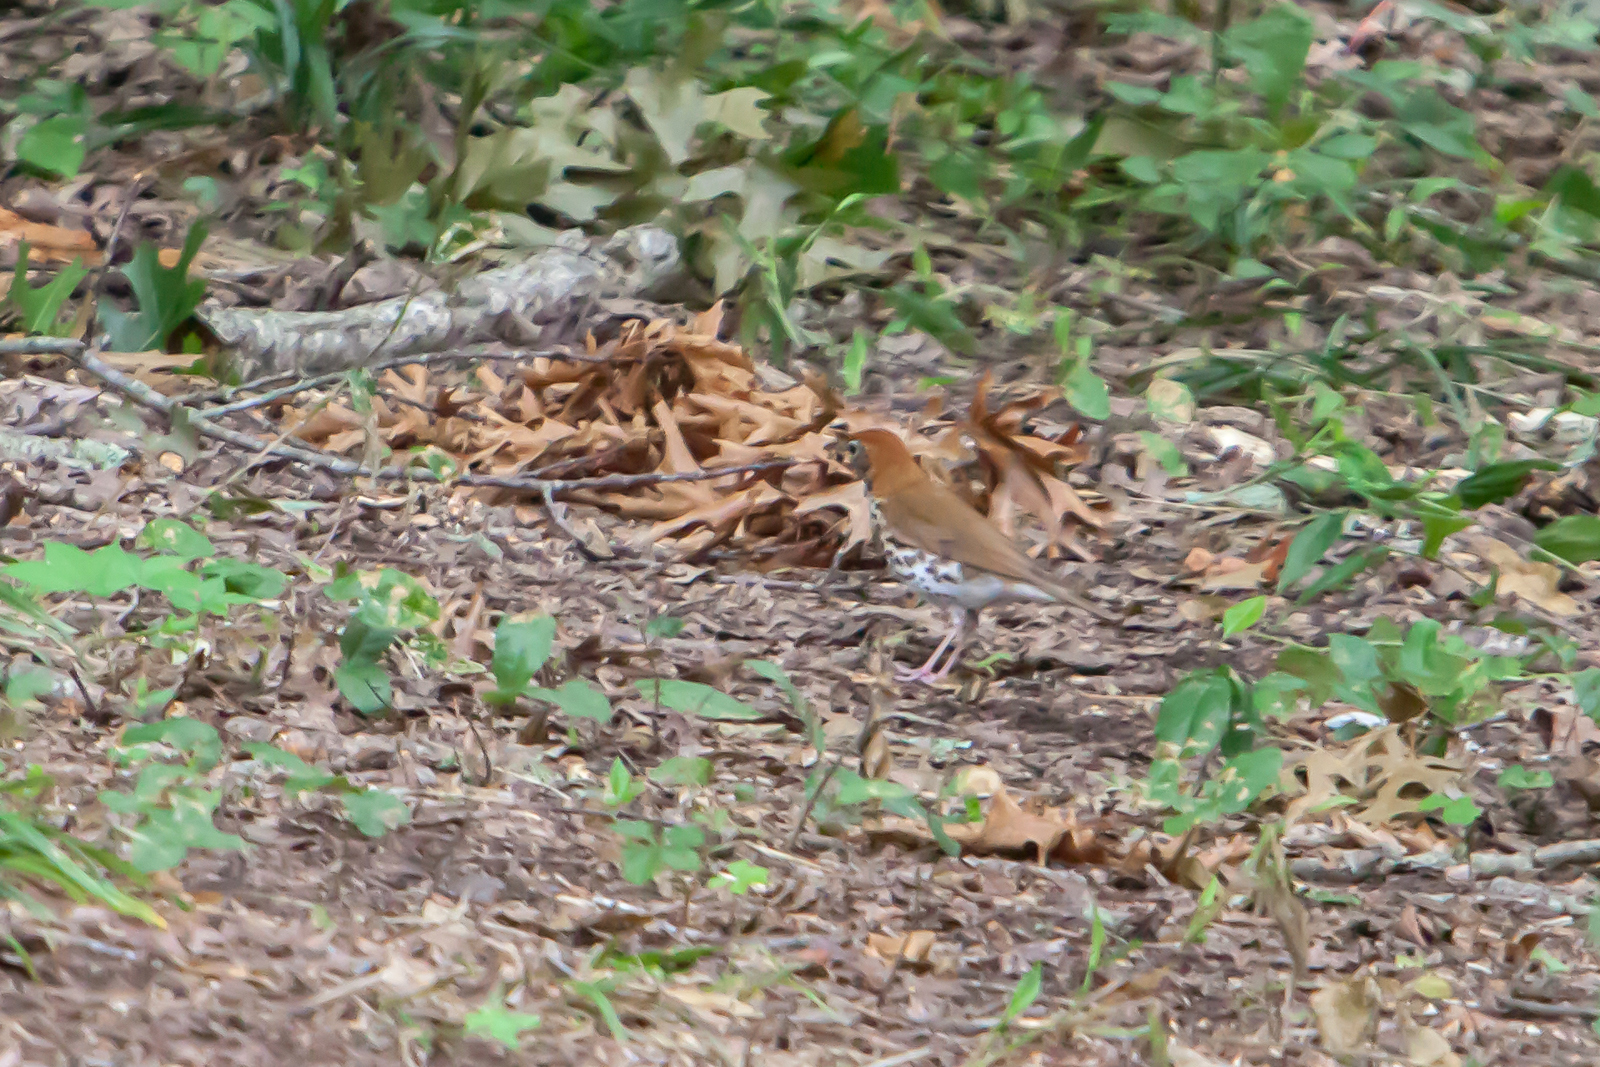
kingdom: Animalia
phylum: Chordata
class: Aves
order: Passeriformes
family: Turdidae
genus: Hylocichla
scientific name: Hylocichla mustelina
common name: Wood thrush
